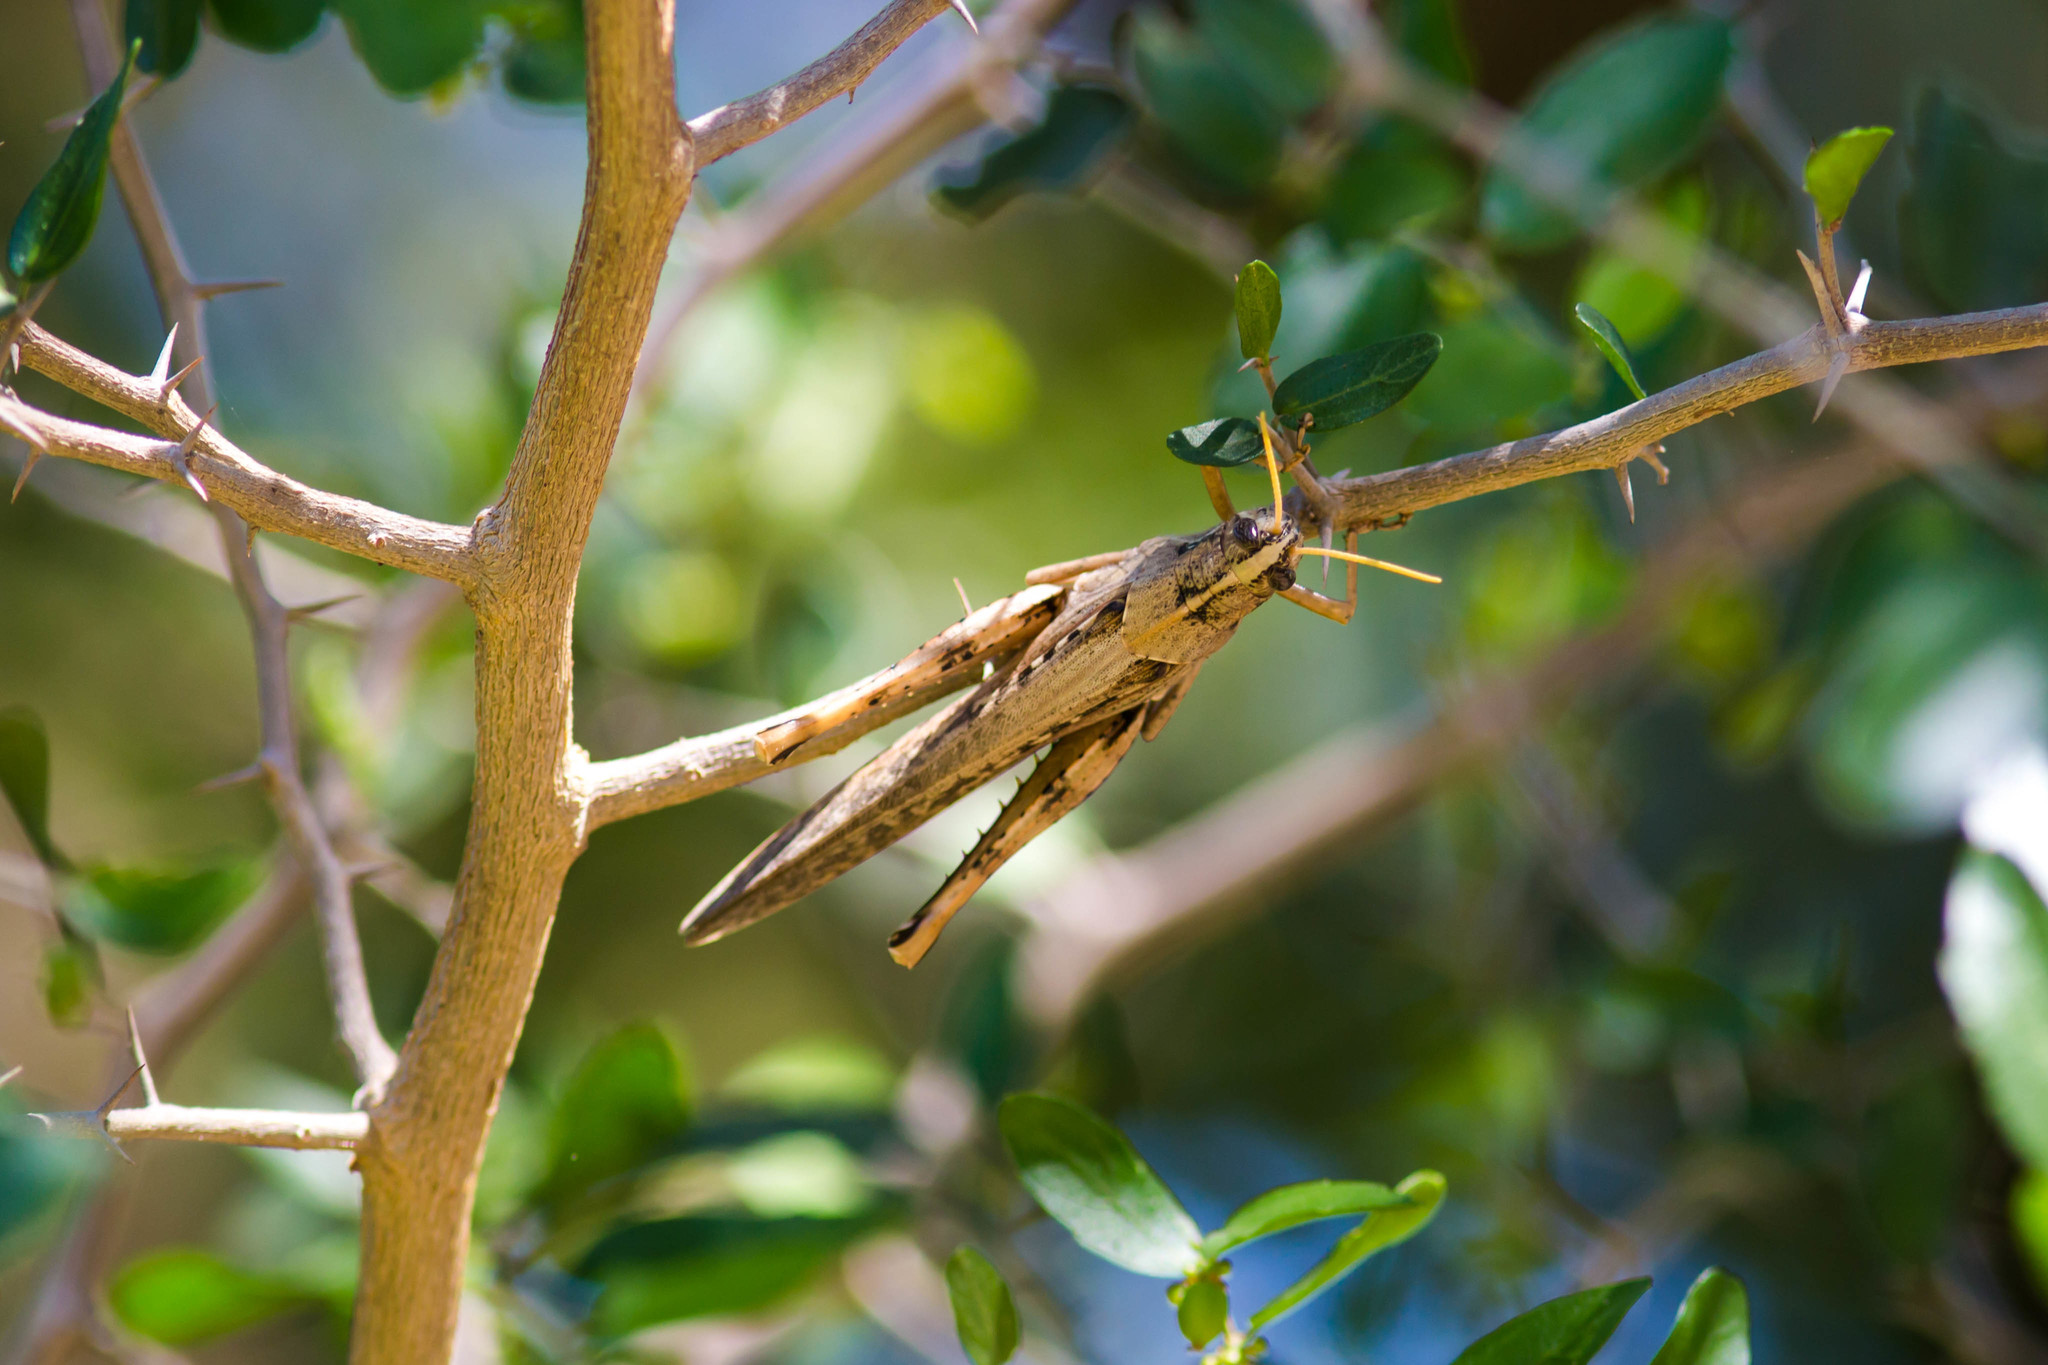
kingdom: Animalia
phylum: Arthropoda
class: Insecta
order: Orthoptera
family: Acrididae
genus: Schistocerca
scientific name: Schistocerca nitens
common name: Vagrant grasshopper
